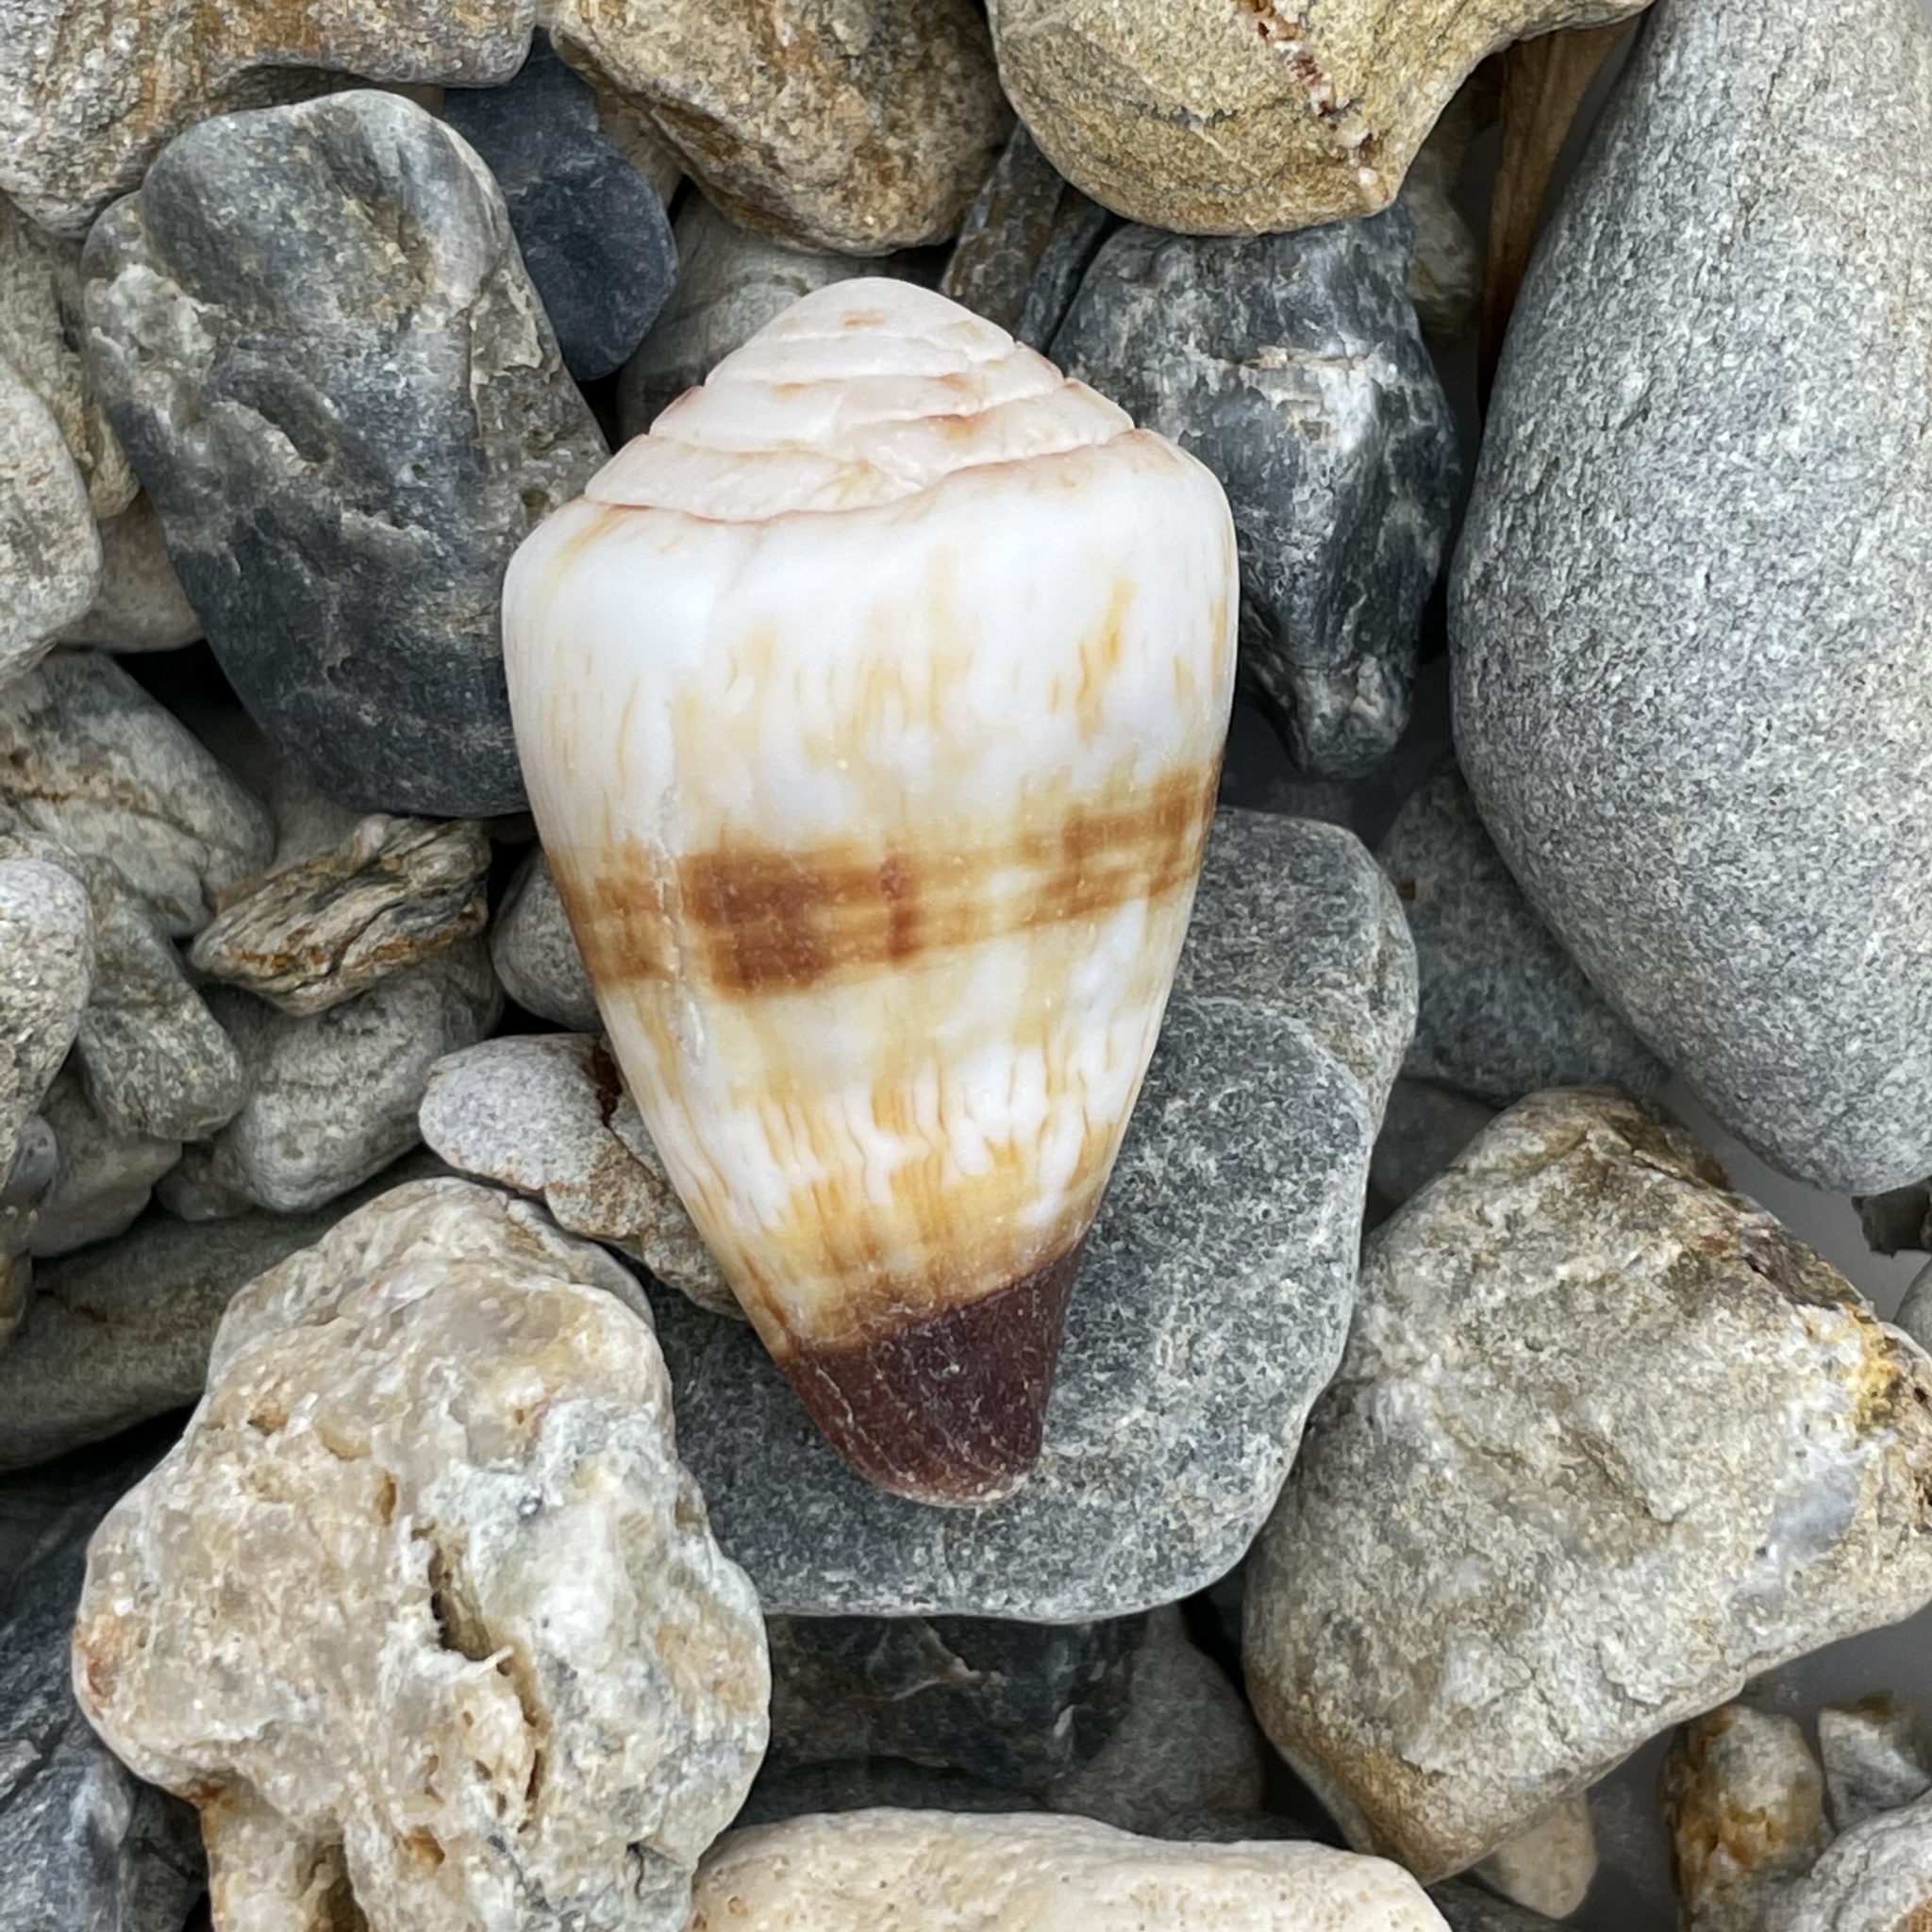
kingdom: Animalia
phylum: Mollusca
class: Gastropoda
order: Neogastropoda
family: Conidae
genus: Conus
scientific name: Conus miles
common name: Soldier cone
